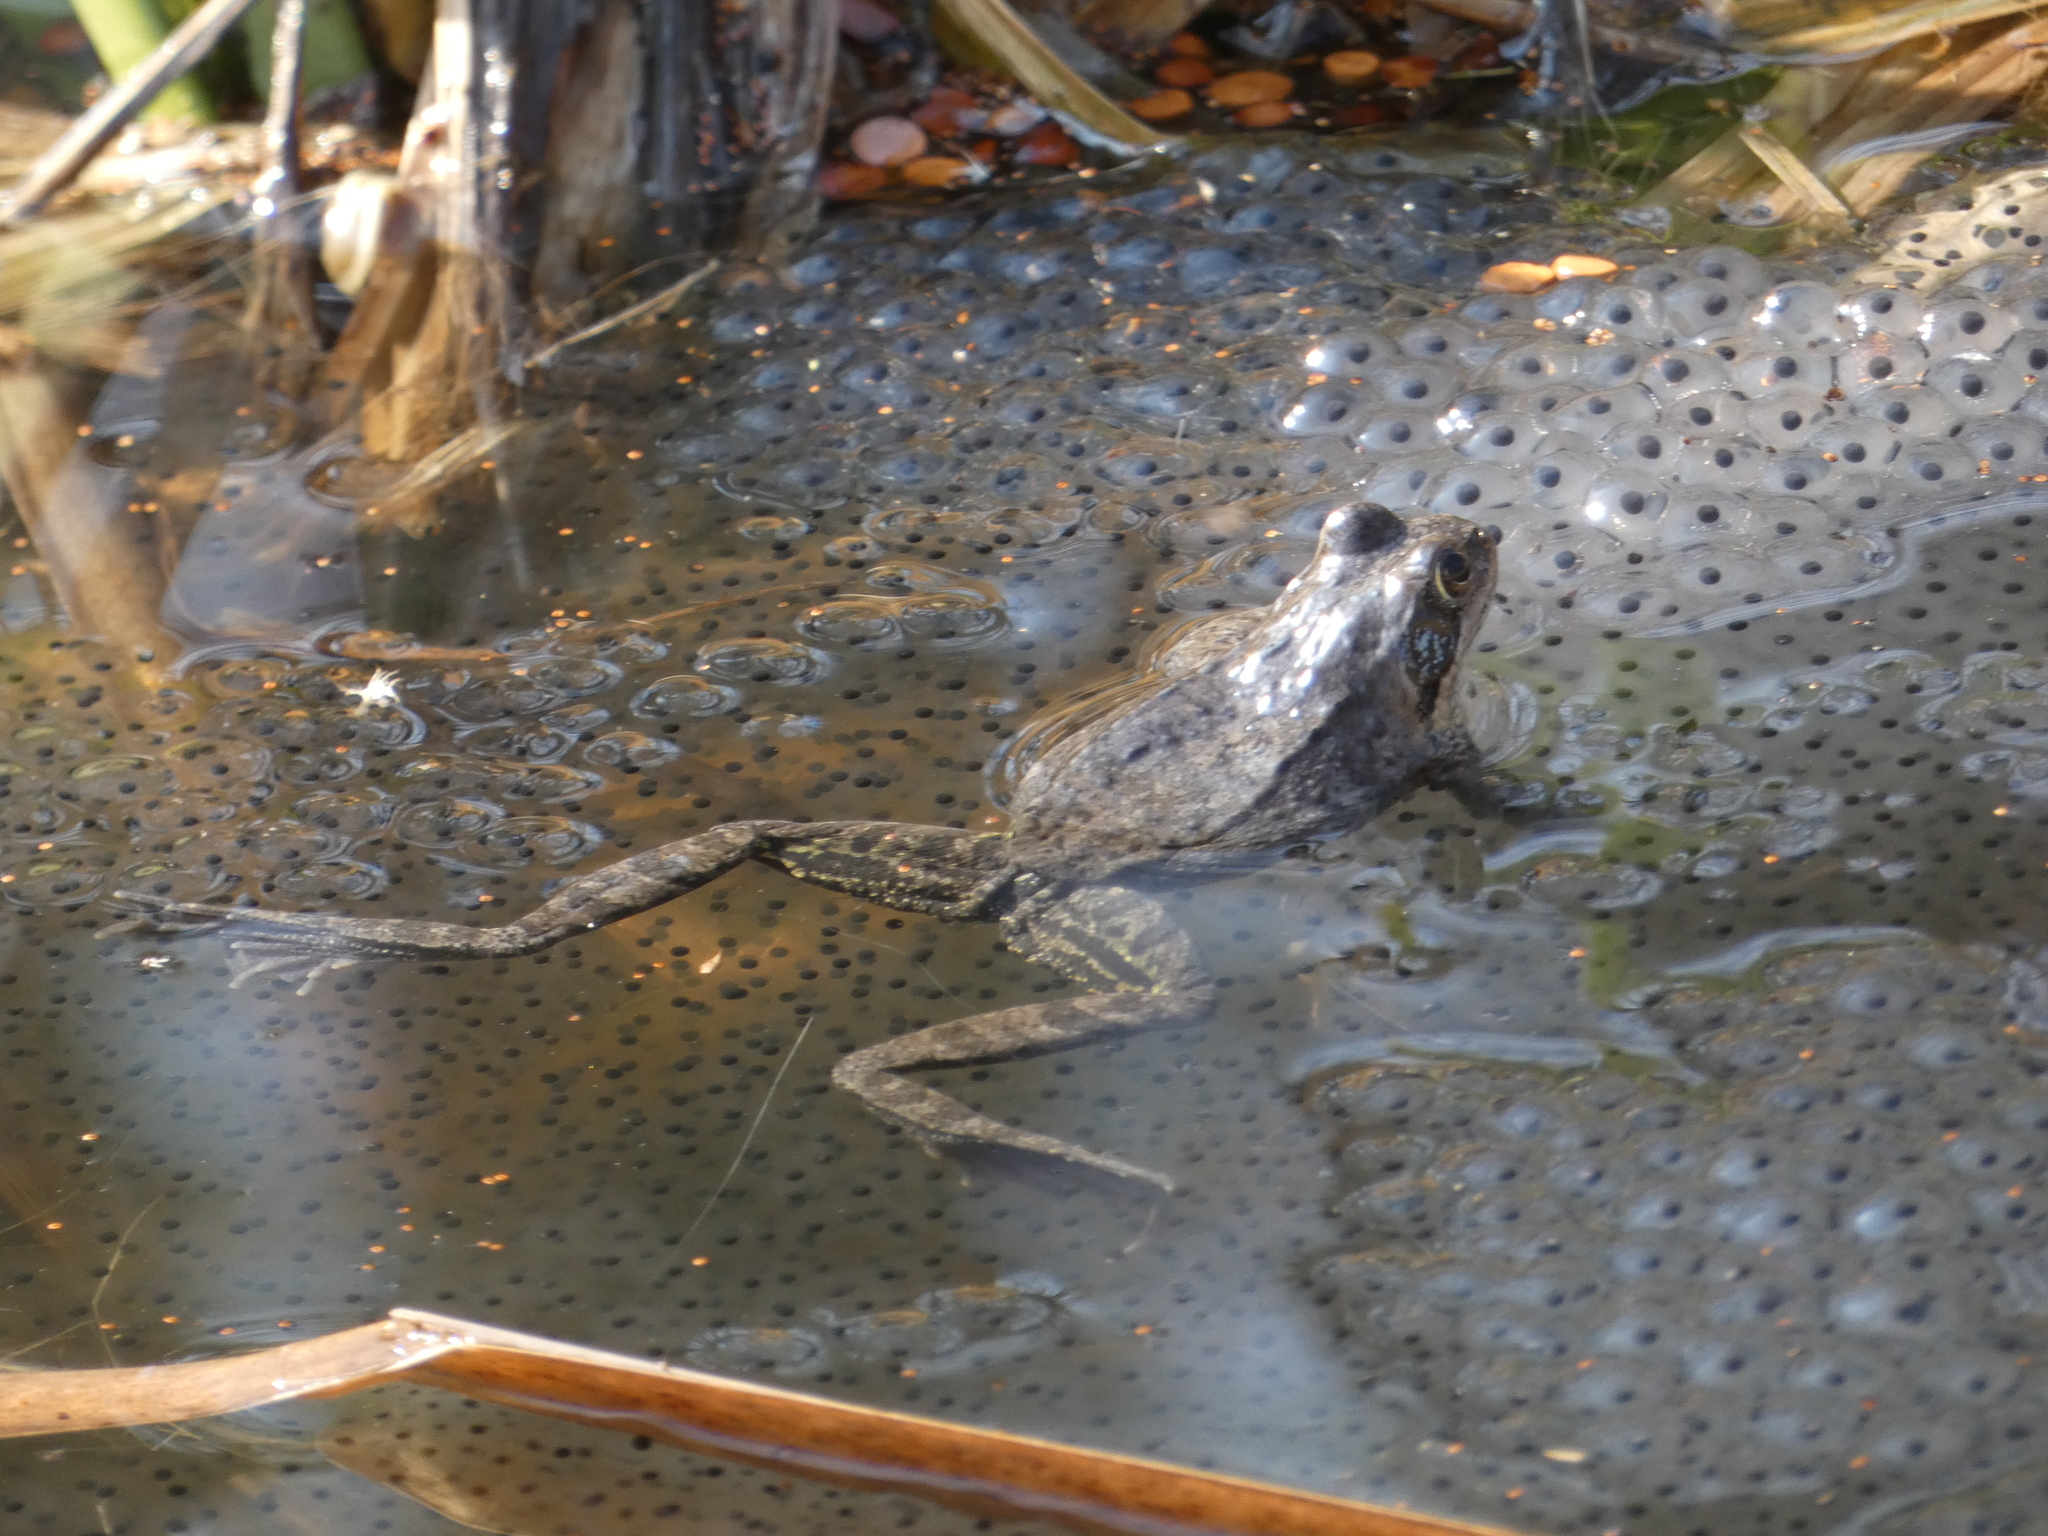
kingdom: Animalia
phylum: Chordata
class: Amphibia
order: Anura
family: Ranidae
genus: Rana
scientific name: Rana temporaria
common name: Common frog
